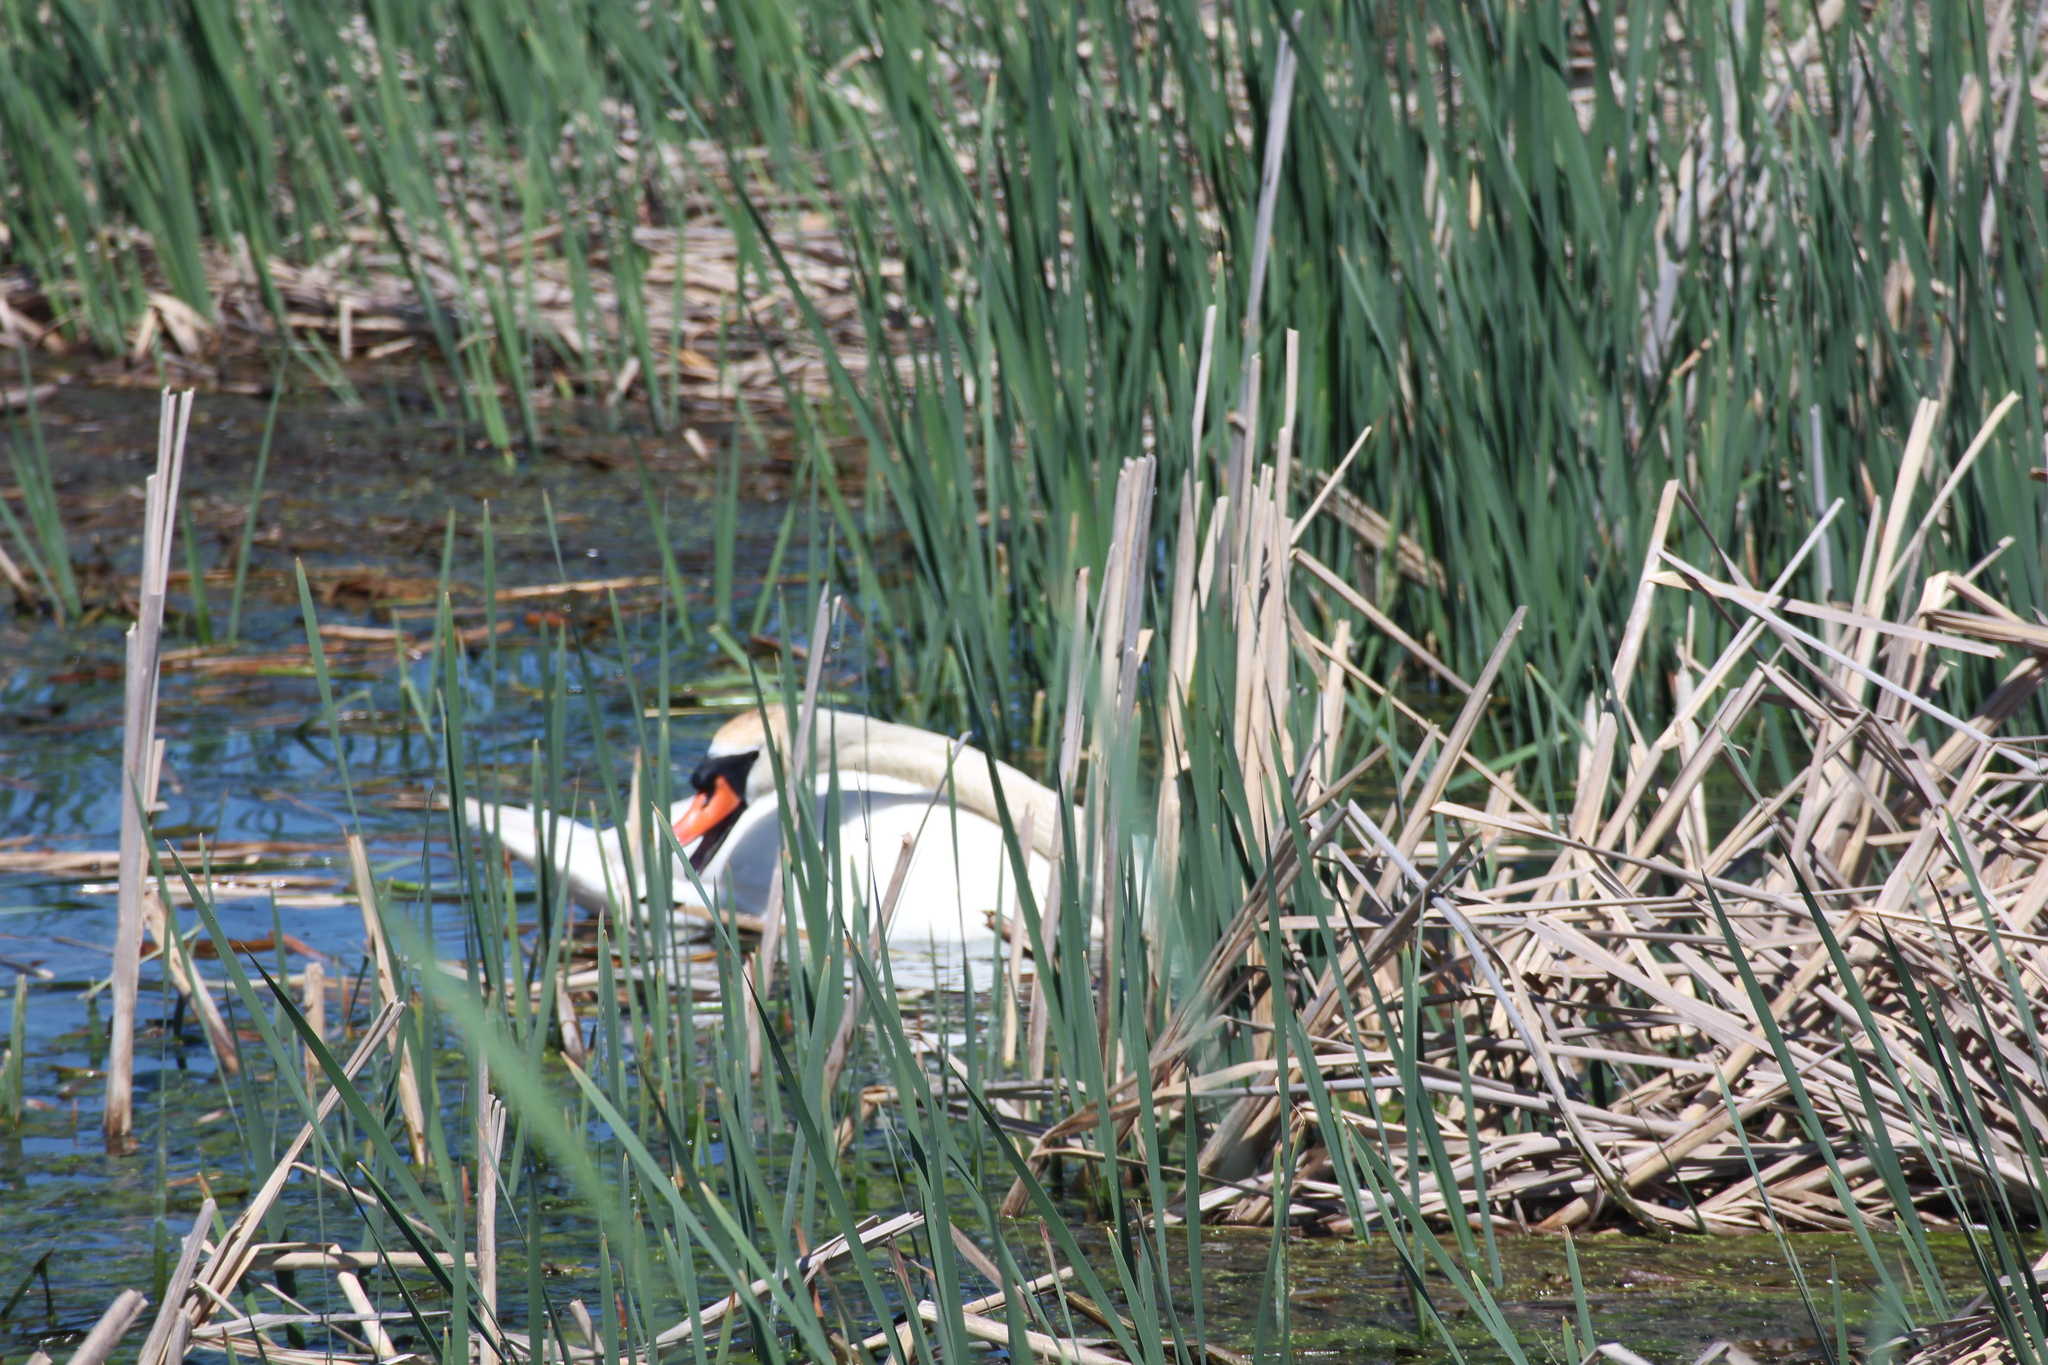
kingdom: Animalia
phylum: Chordata
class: Aves
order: Anseriformes
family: Anatidae
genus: Cygnus
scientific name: Cygnus olor
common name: Mute swan
